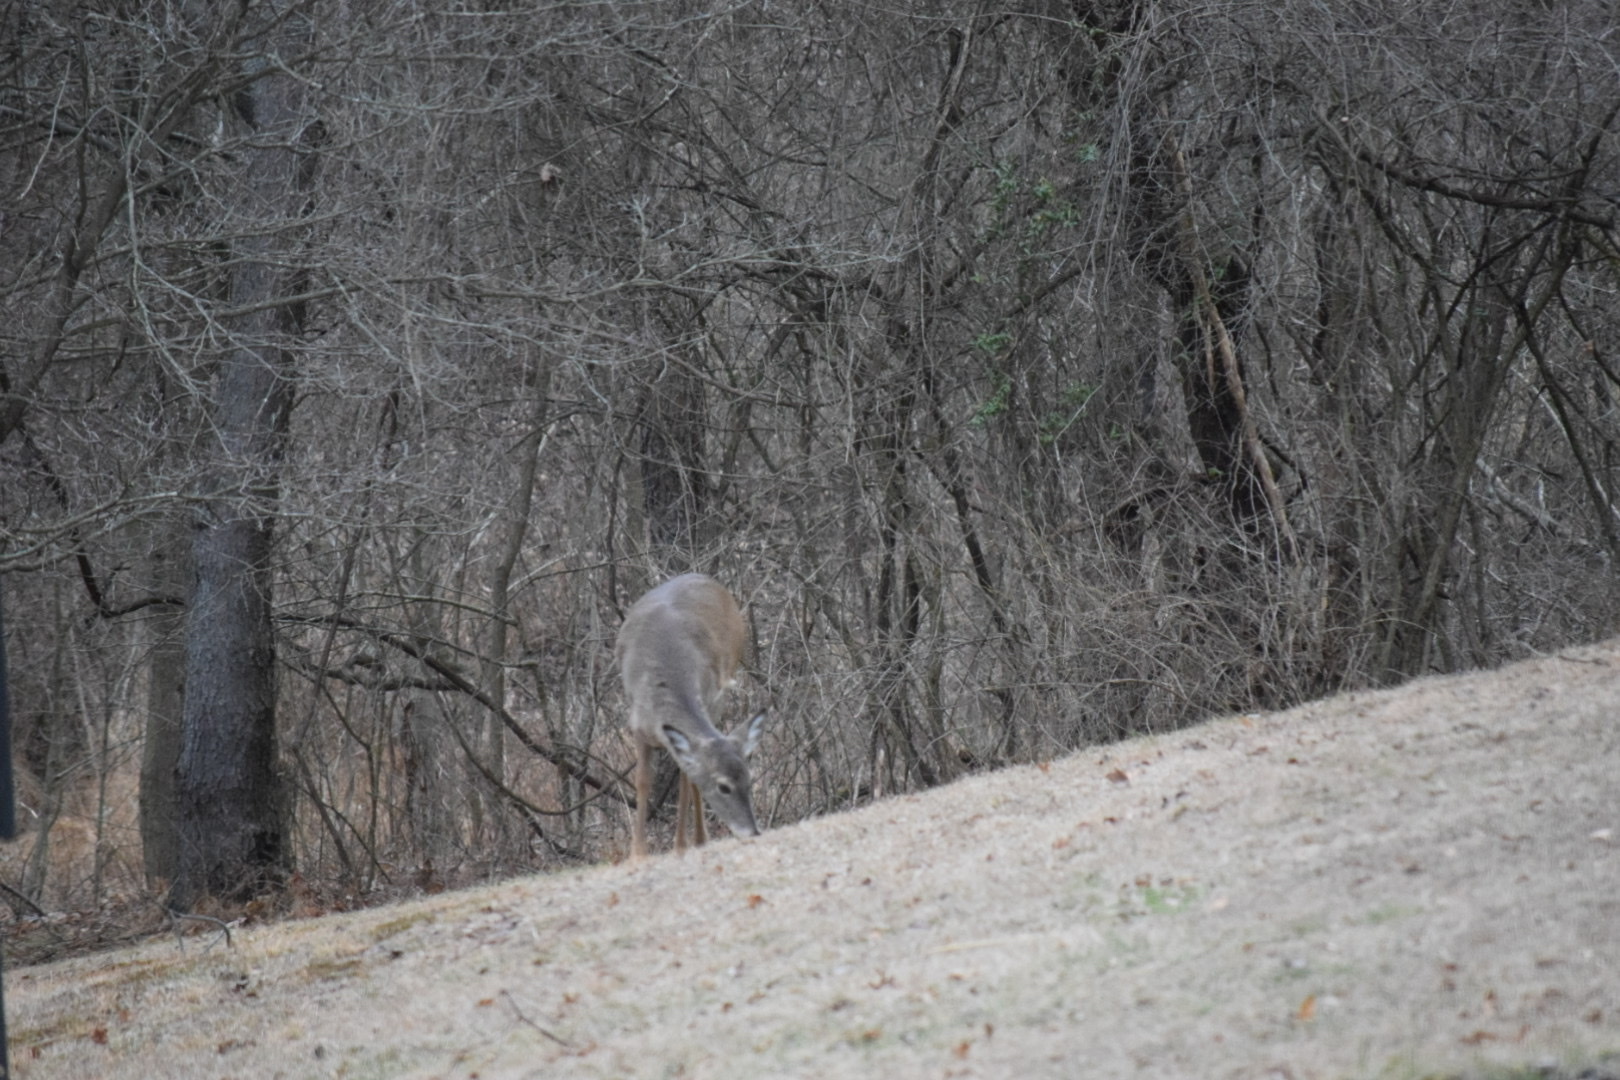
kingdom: Animalia
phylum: Chordata
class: Mammalia
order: Artiodactyla
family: Cervidae
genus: Odocoileus
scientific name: Odocoileus virginianus
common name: White-tailed deer
